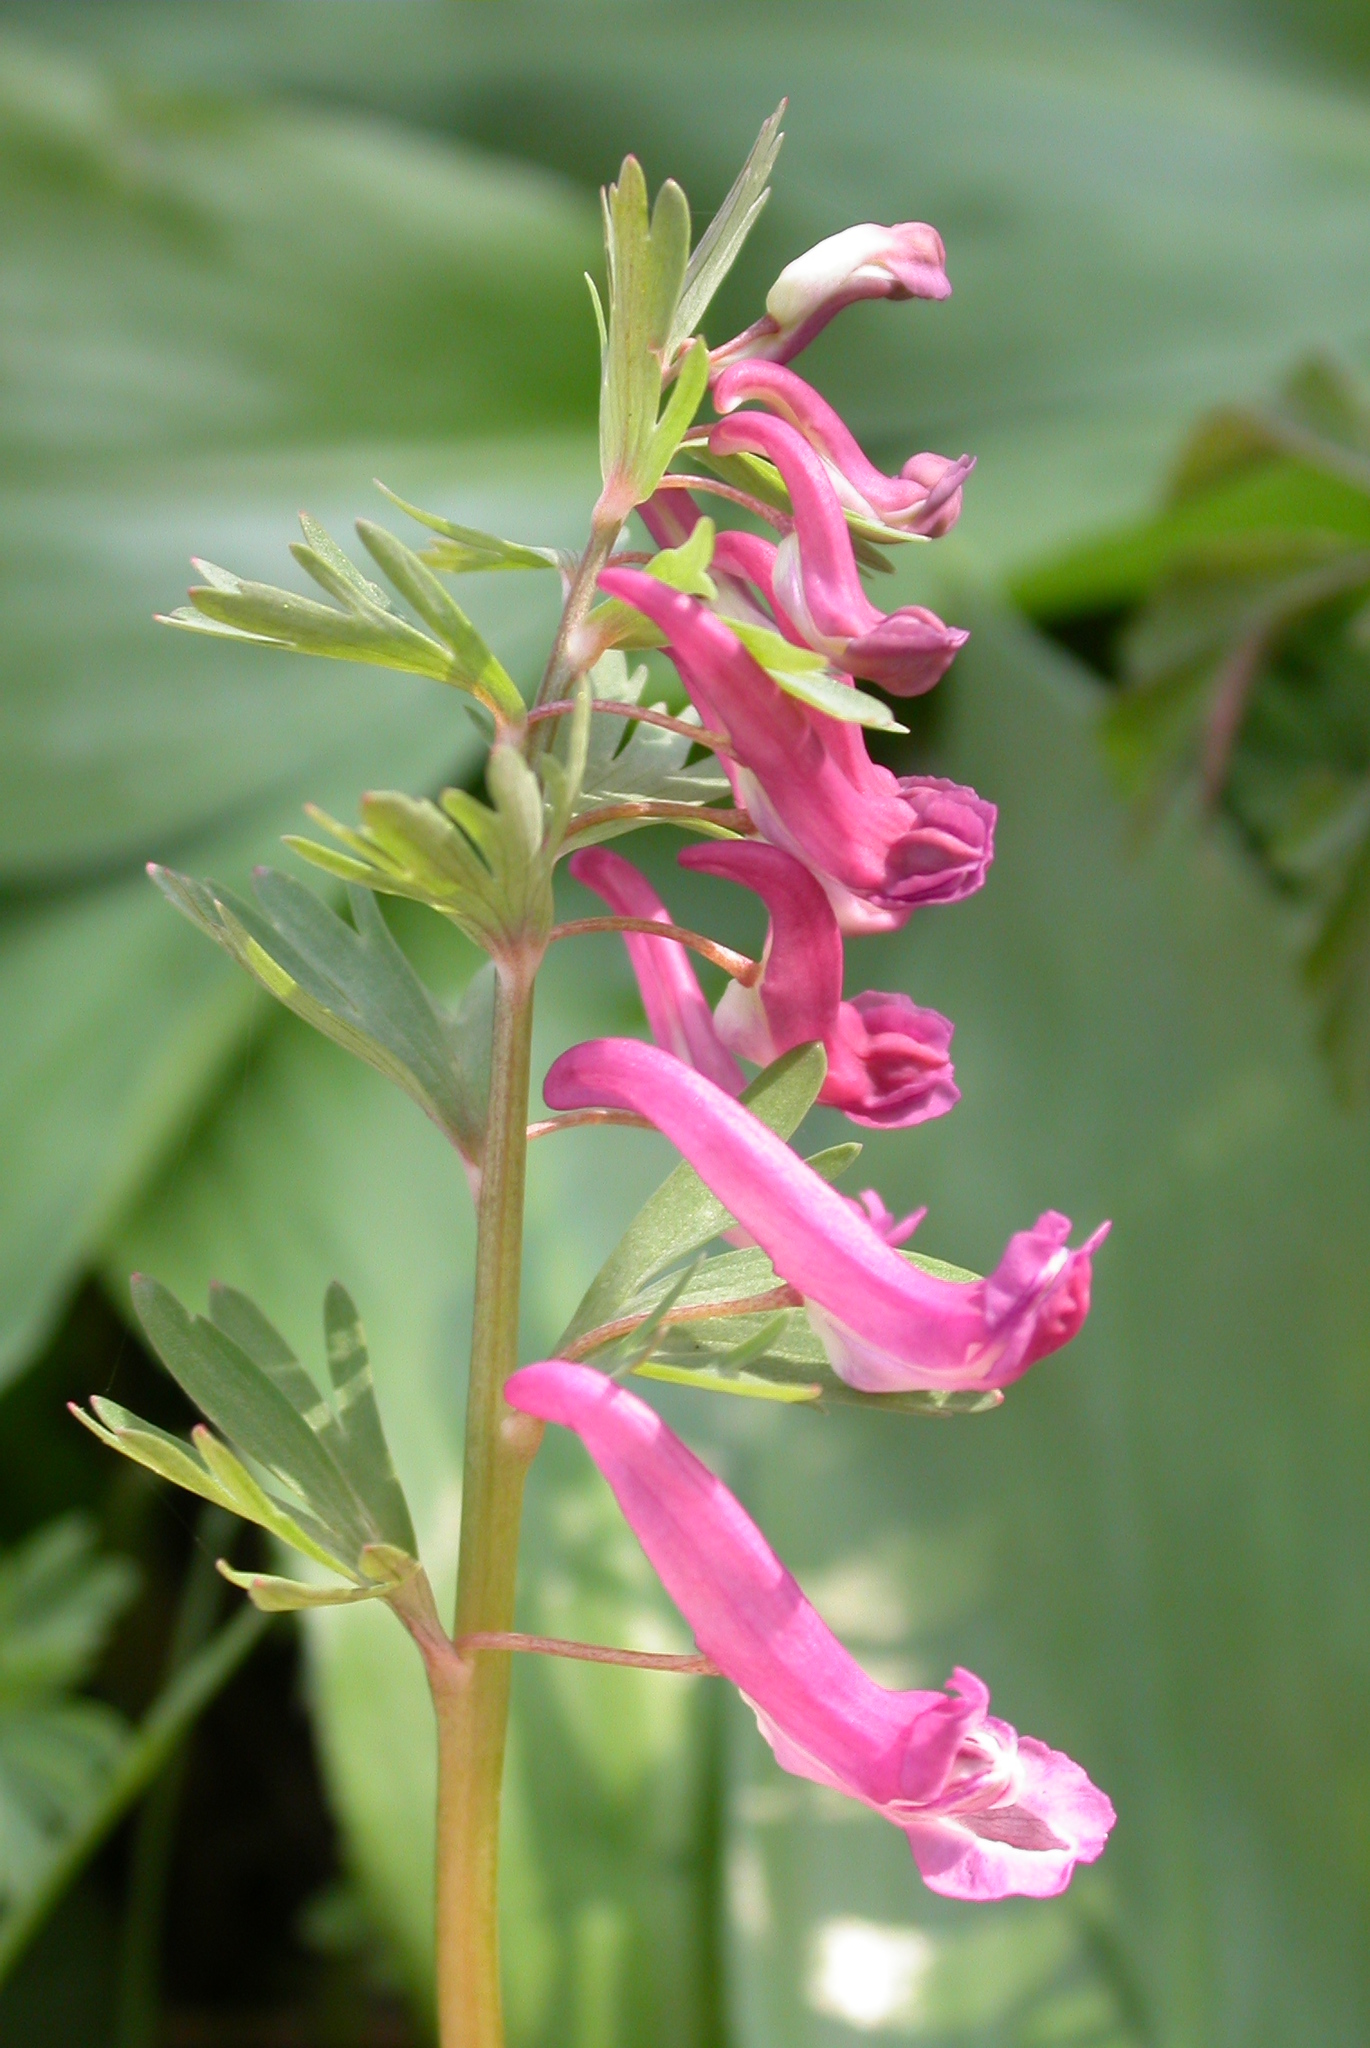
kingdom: Plantae
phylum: Tracheophyta
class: Magnoliopsida
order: Ranunculales
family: Papaveraceae
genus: Corydalis
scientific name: Corydalis solida
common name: Bird-in-a-bush
